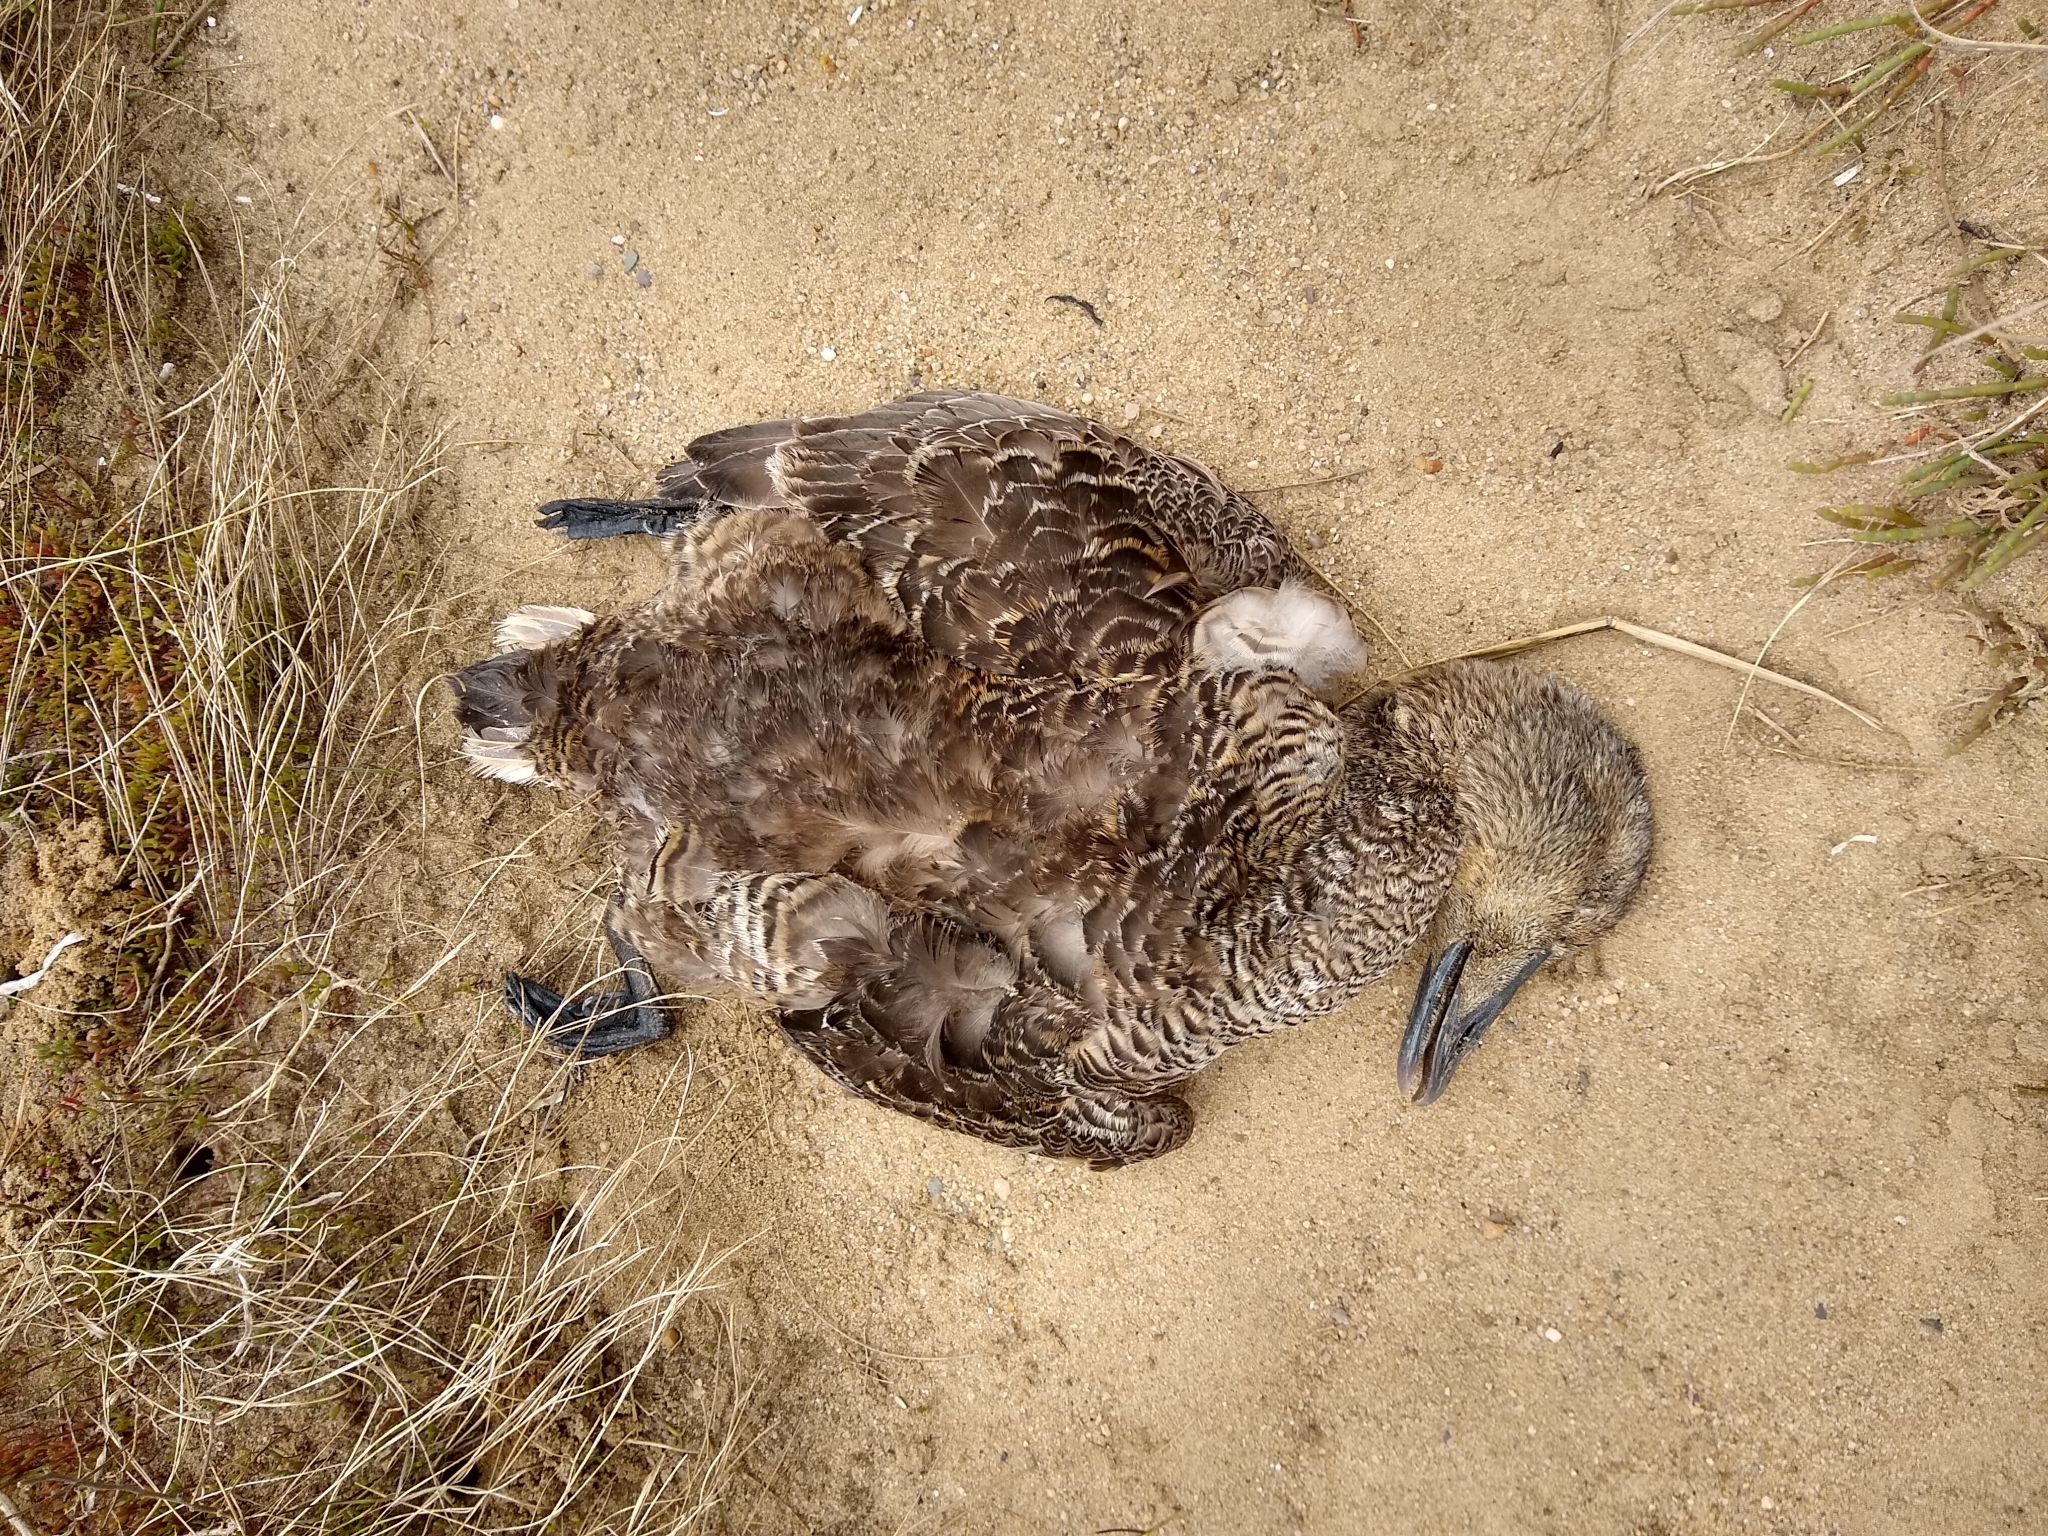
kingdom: Animalia
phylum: Chordata
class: Aves
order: Anseriformes
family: Anatidae
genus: Somateria
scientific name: Somateria mollissima
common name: Common eider
